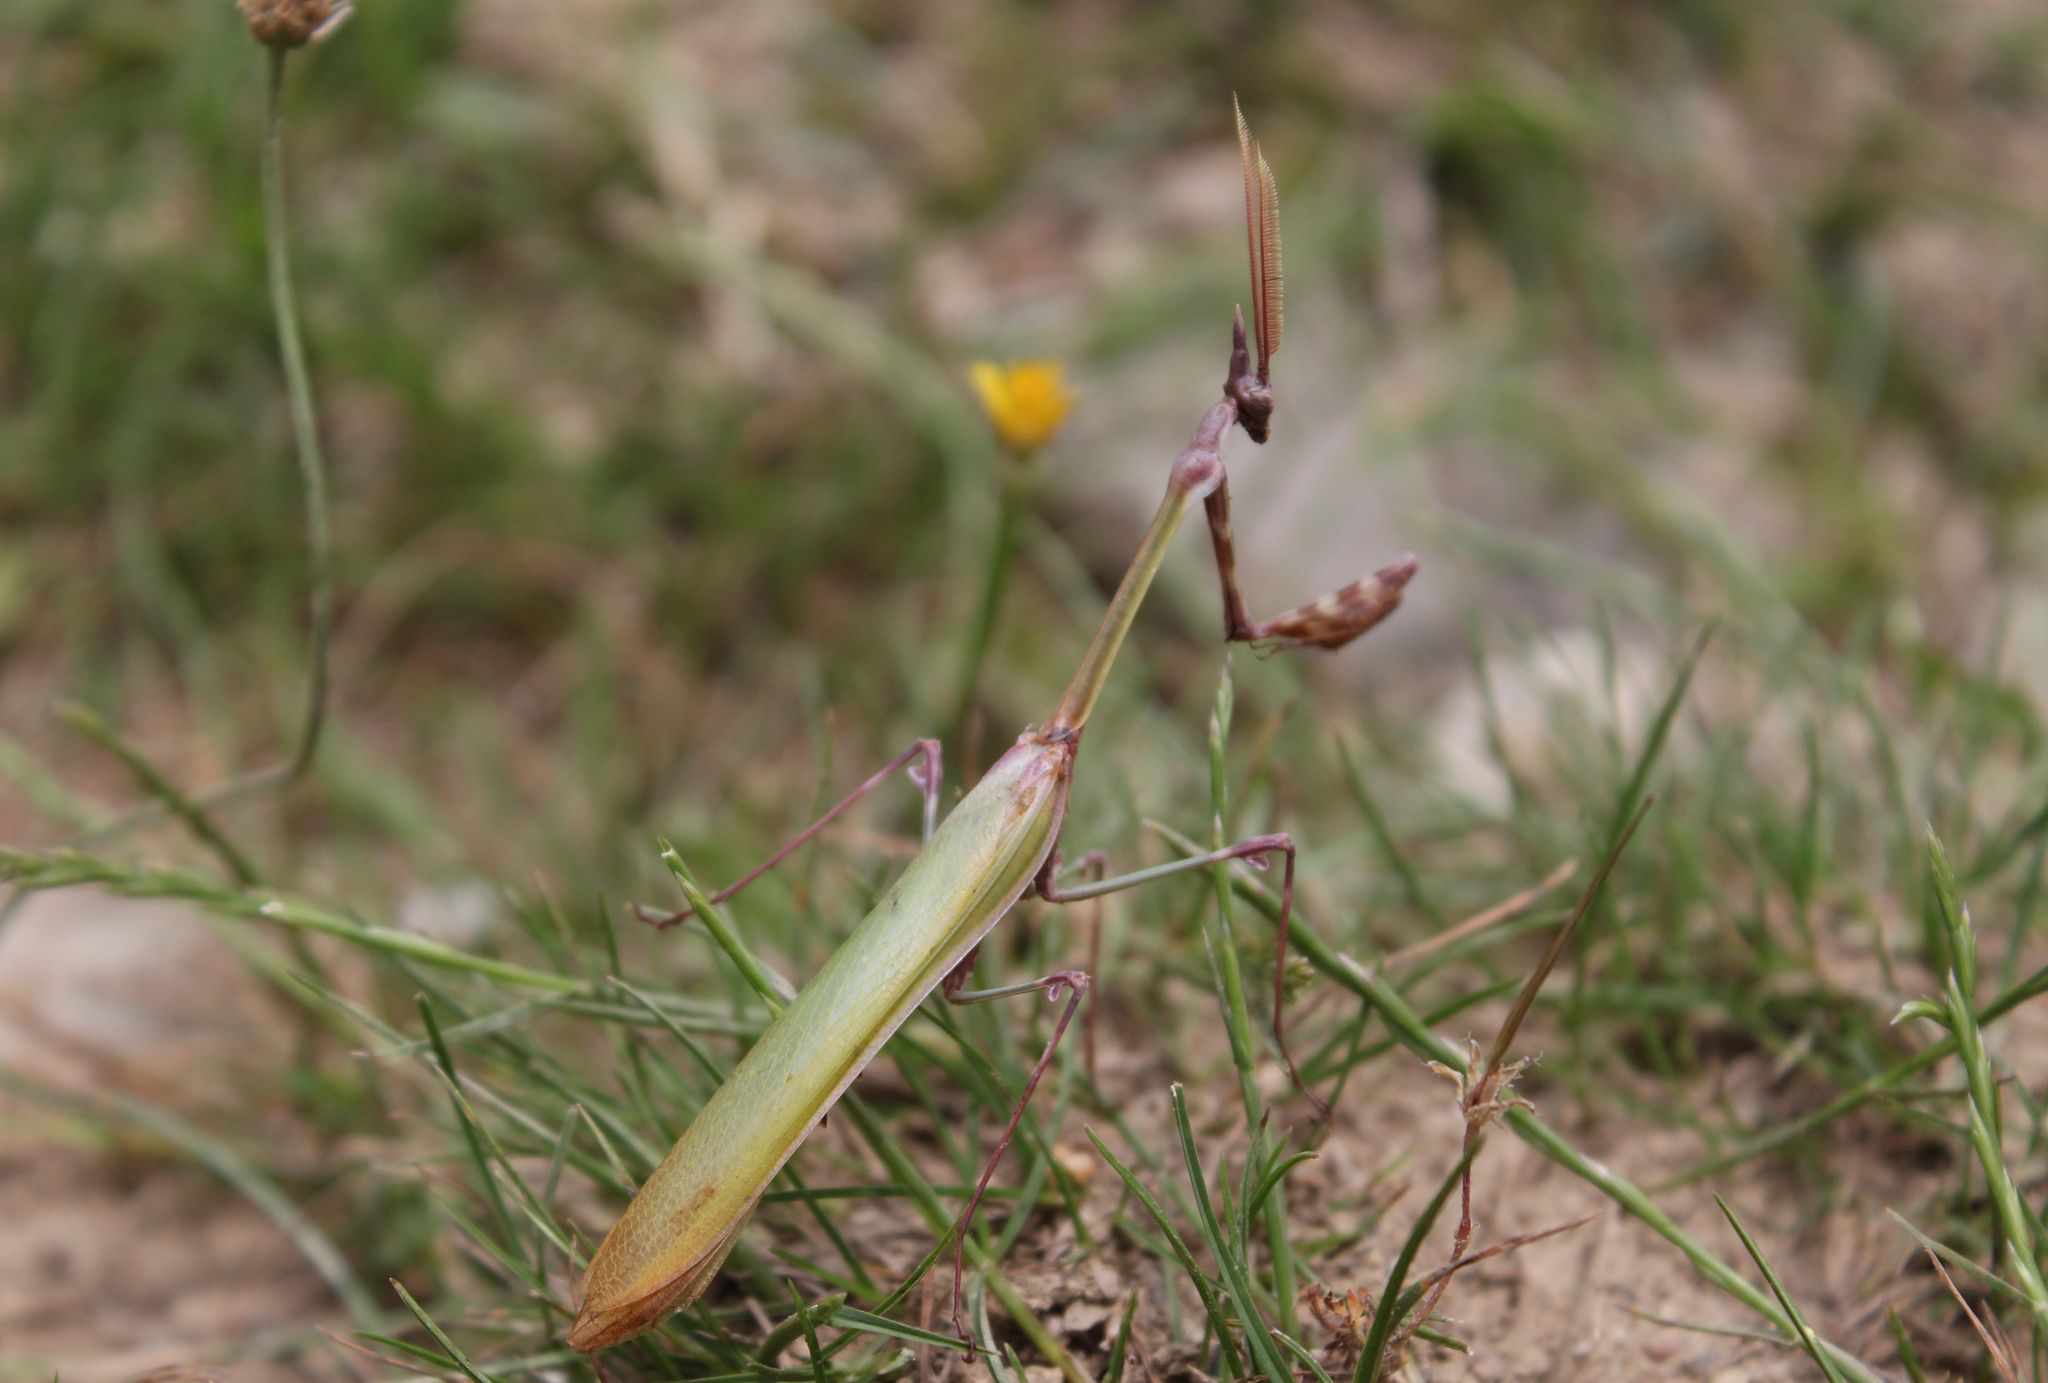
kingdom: Animalia
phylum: Arthropoda
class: Insecta
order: Mantodea
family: Empusidae
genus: Empusa
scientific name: Empusa fasciata
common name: Devil's mare
